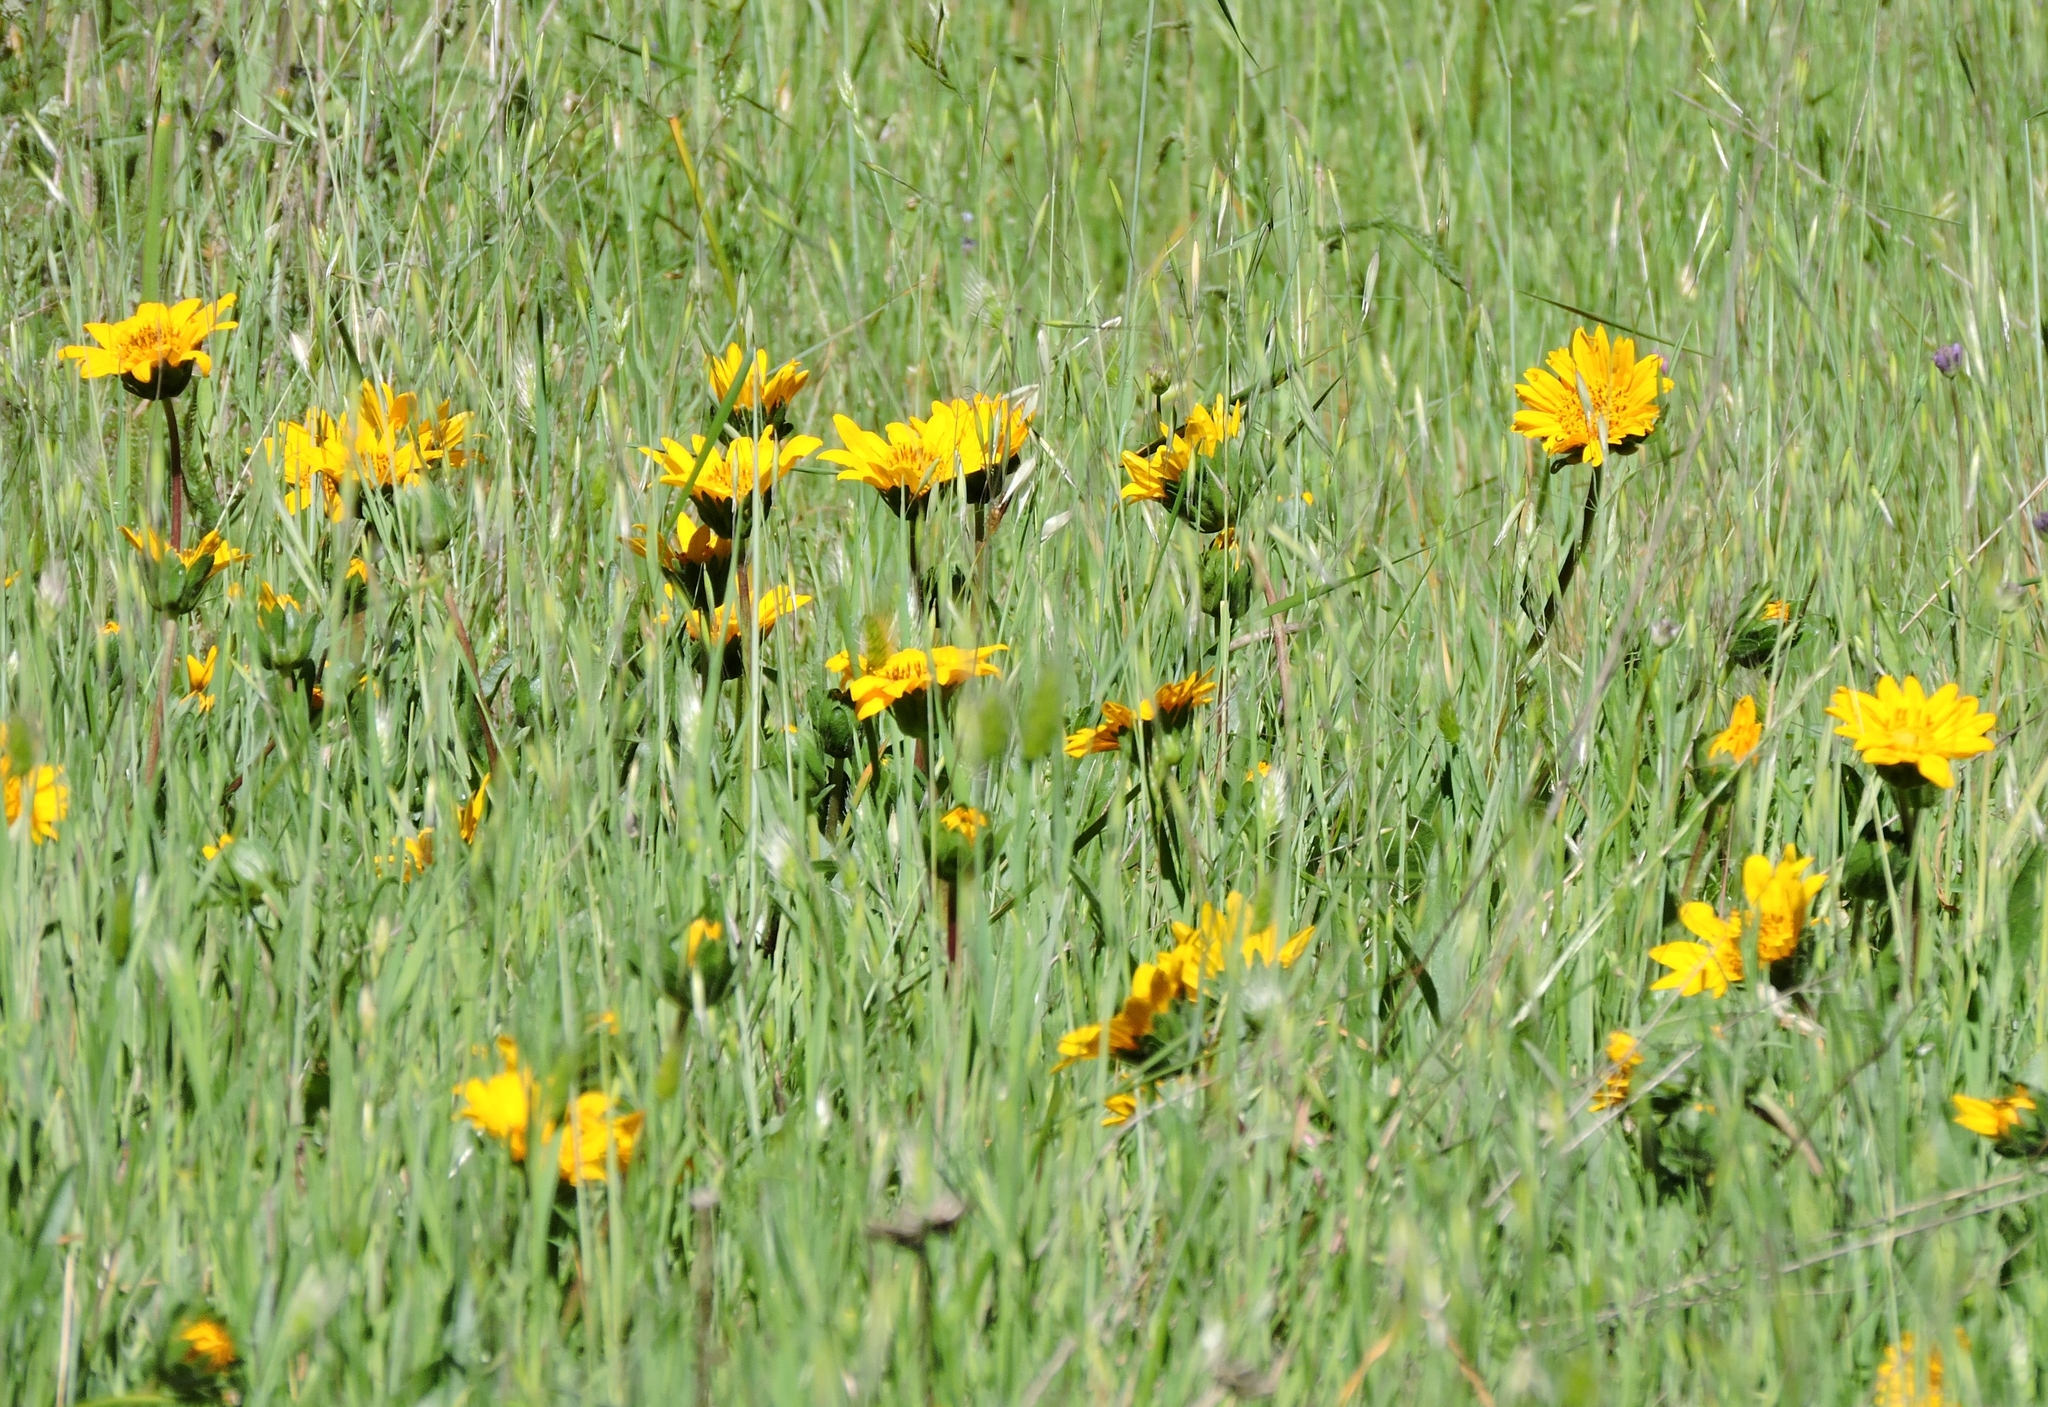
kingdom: Plantae
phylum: Tracheophyta
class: Magnoliopsida
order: Asterales
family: Asteraceae
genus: Wyethia
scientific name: Wyethia angustifolia
